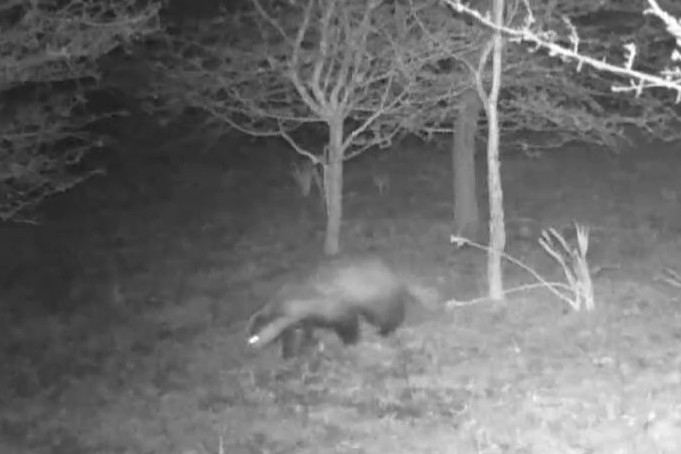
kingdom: Animalia
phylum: Chordata
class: Mammalia
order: Carnivora
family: Mustelidae
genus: Meles
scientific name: Meles meles
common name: Eurasian badger
